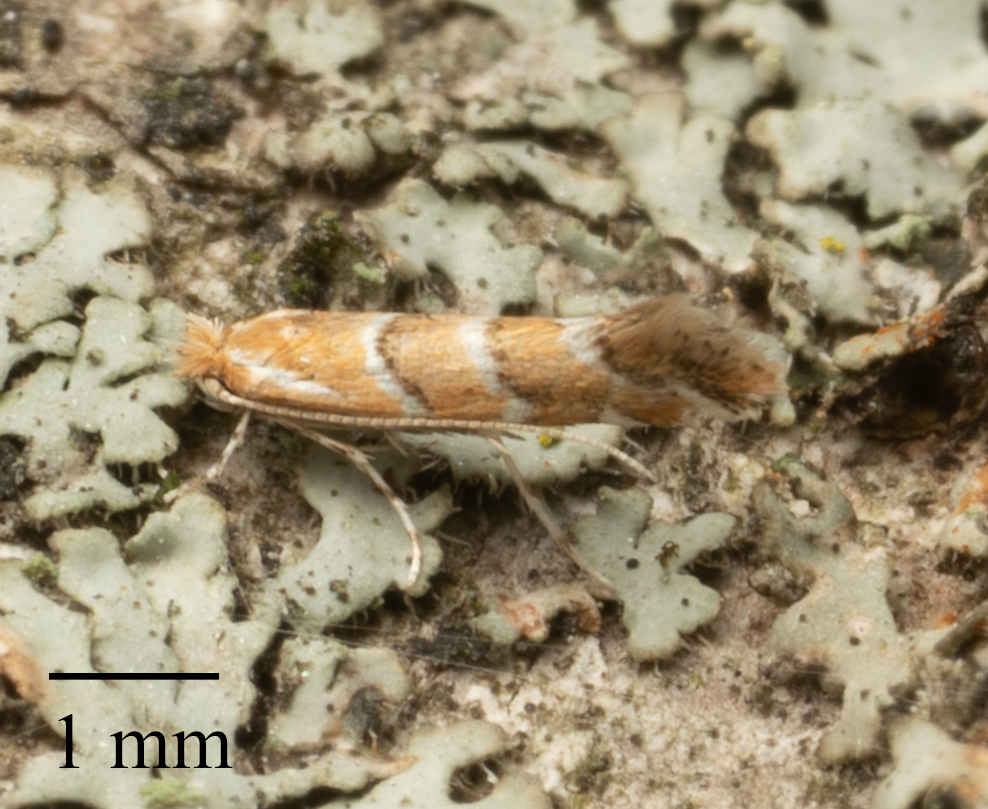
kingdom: Animalia
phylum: Arthropoda
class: Insecta
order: Lepidoptera
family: Gracillariidae
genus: Cameraria
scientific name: Cameraria ohridella
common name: Horse-chestnut leaf-miner
